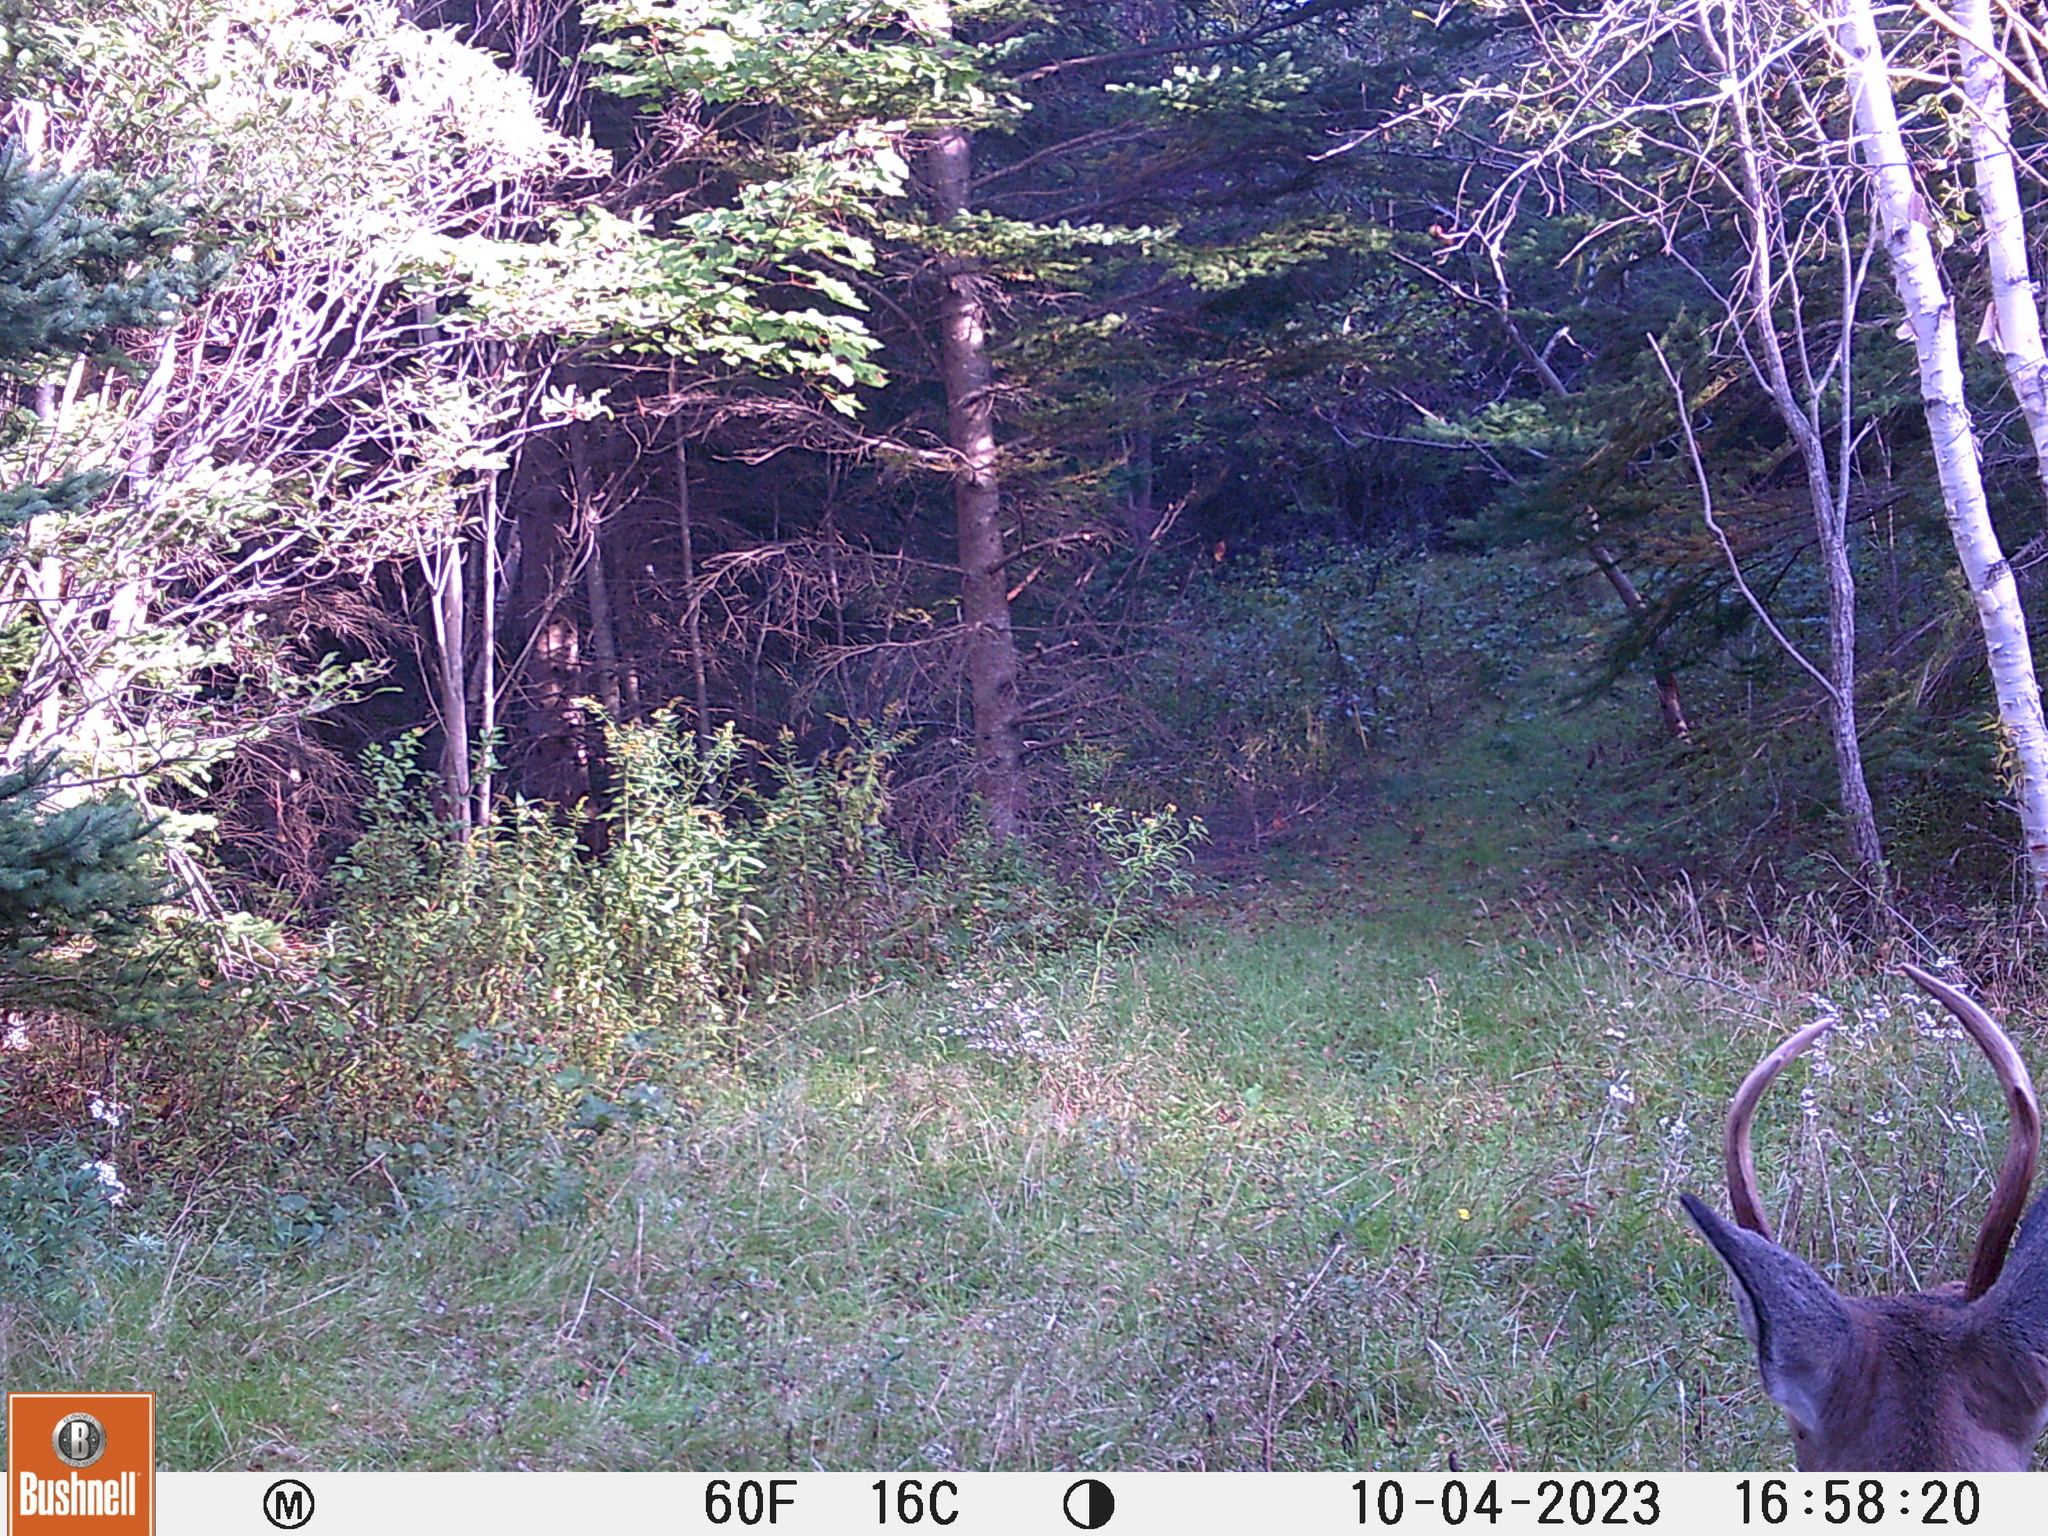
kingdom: Animalia
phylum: Chordata
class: Mammalia
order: Artiodactyla
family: Cervidae
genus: Odocoileus
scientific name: Odocoileus virginianus
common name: White-tailed deer
